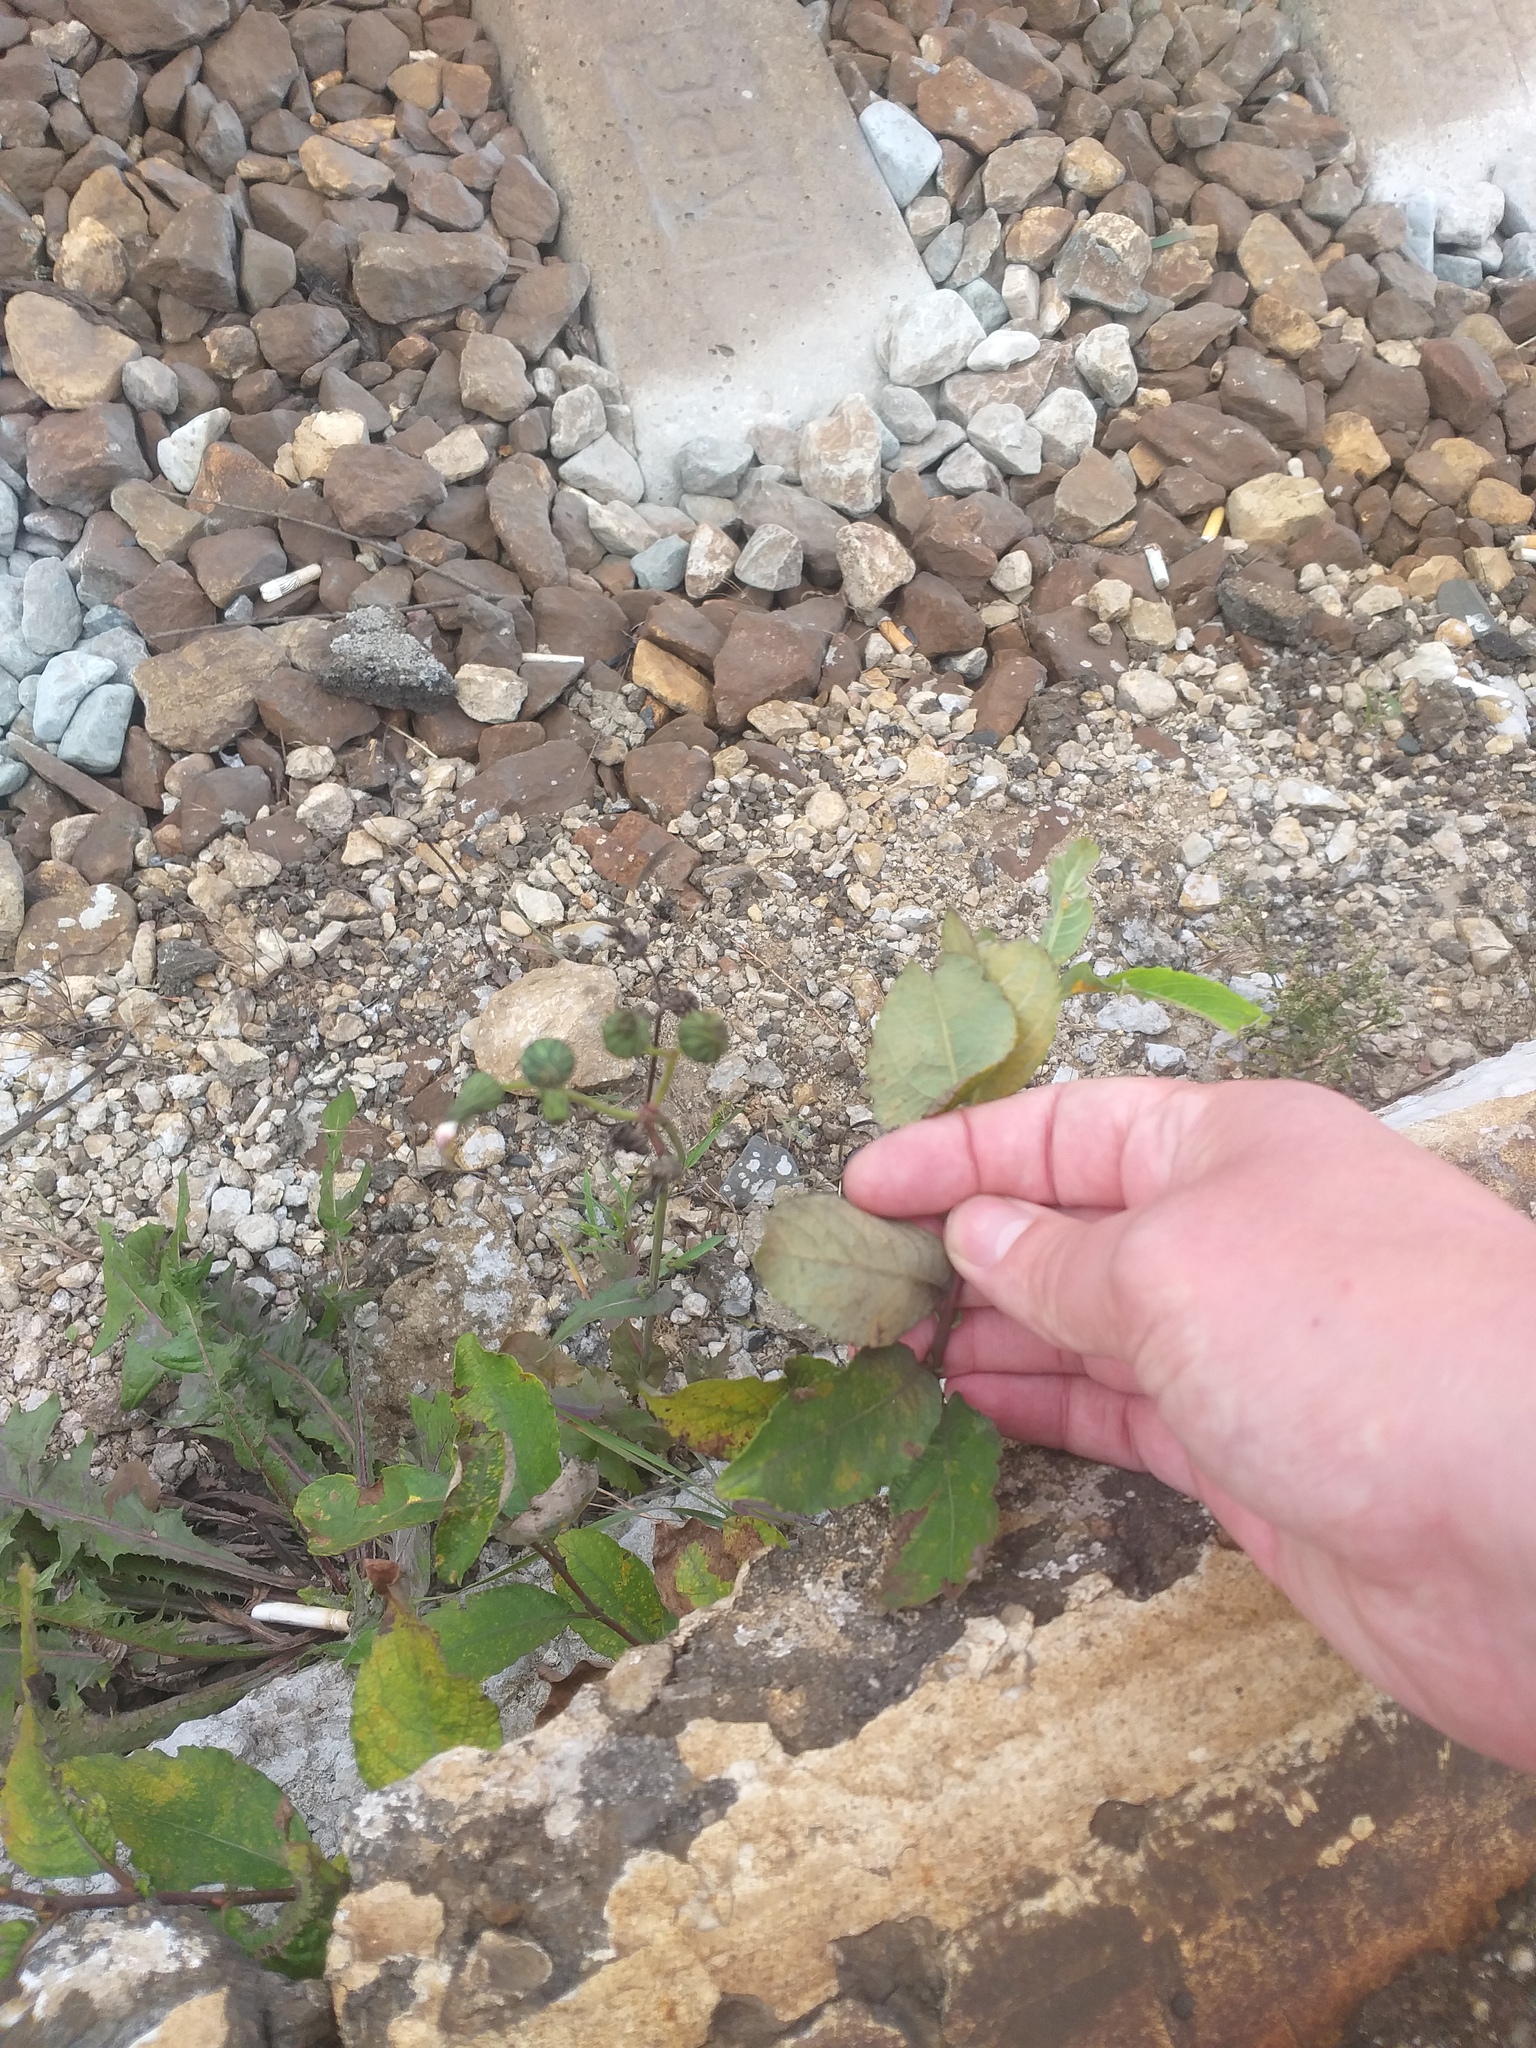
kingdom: Plantae
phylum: Tracheophyta
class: Magnoliopsida
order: Malpighiales
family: Salicaceae
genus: Salix
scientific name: Salix caprea
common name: Goat willow
